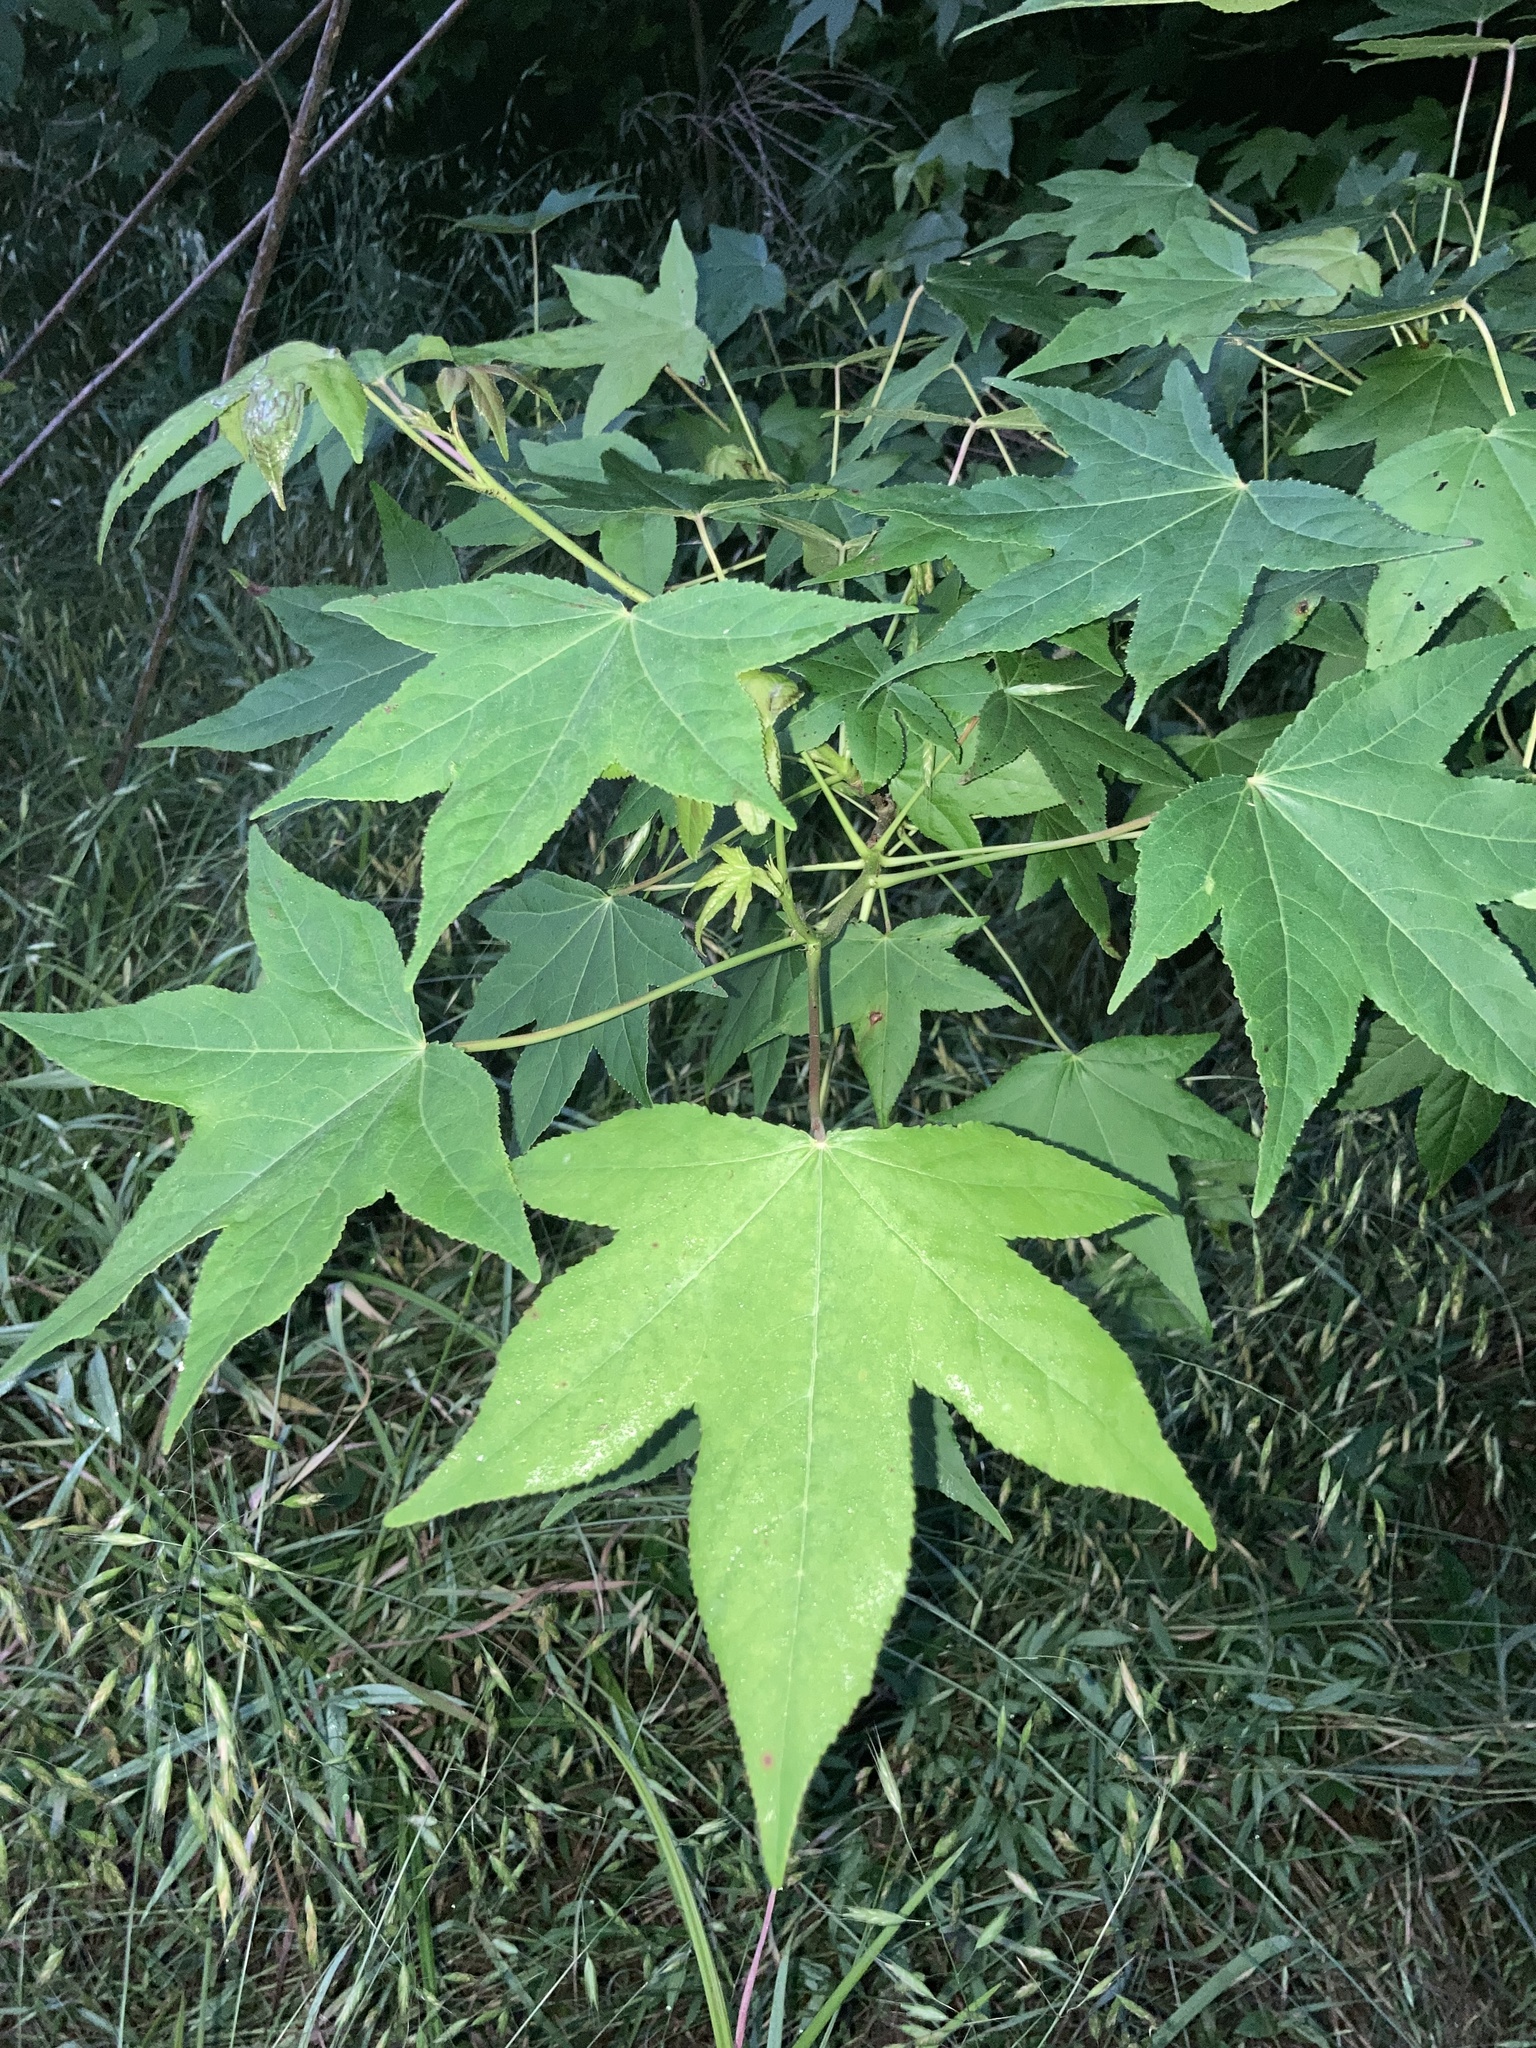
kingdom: Plantae
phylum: Tracheophyta
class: Magnoliopsida
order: Saxifragales
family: Altingiaceae
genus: Liquidambar
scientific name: Liquidambar styraciflua
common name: Sweet gum
